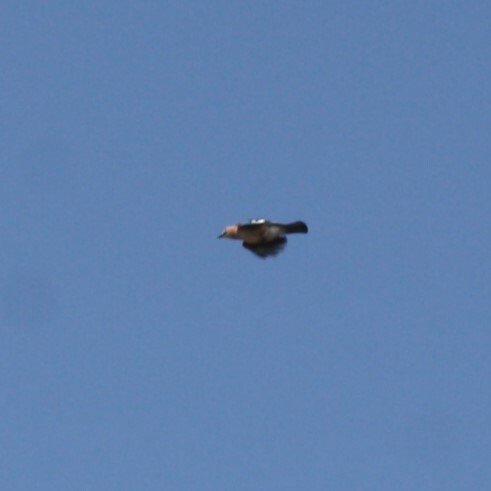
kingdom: Animalia
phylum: Chordata
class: Aves
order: Passeriformes
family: Corvidae
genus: Garrulus
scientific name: Garrulus glandarius
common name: Eurasian jay
